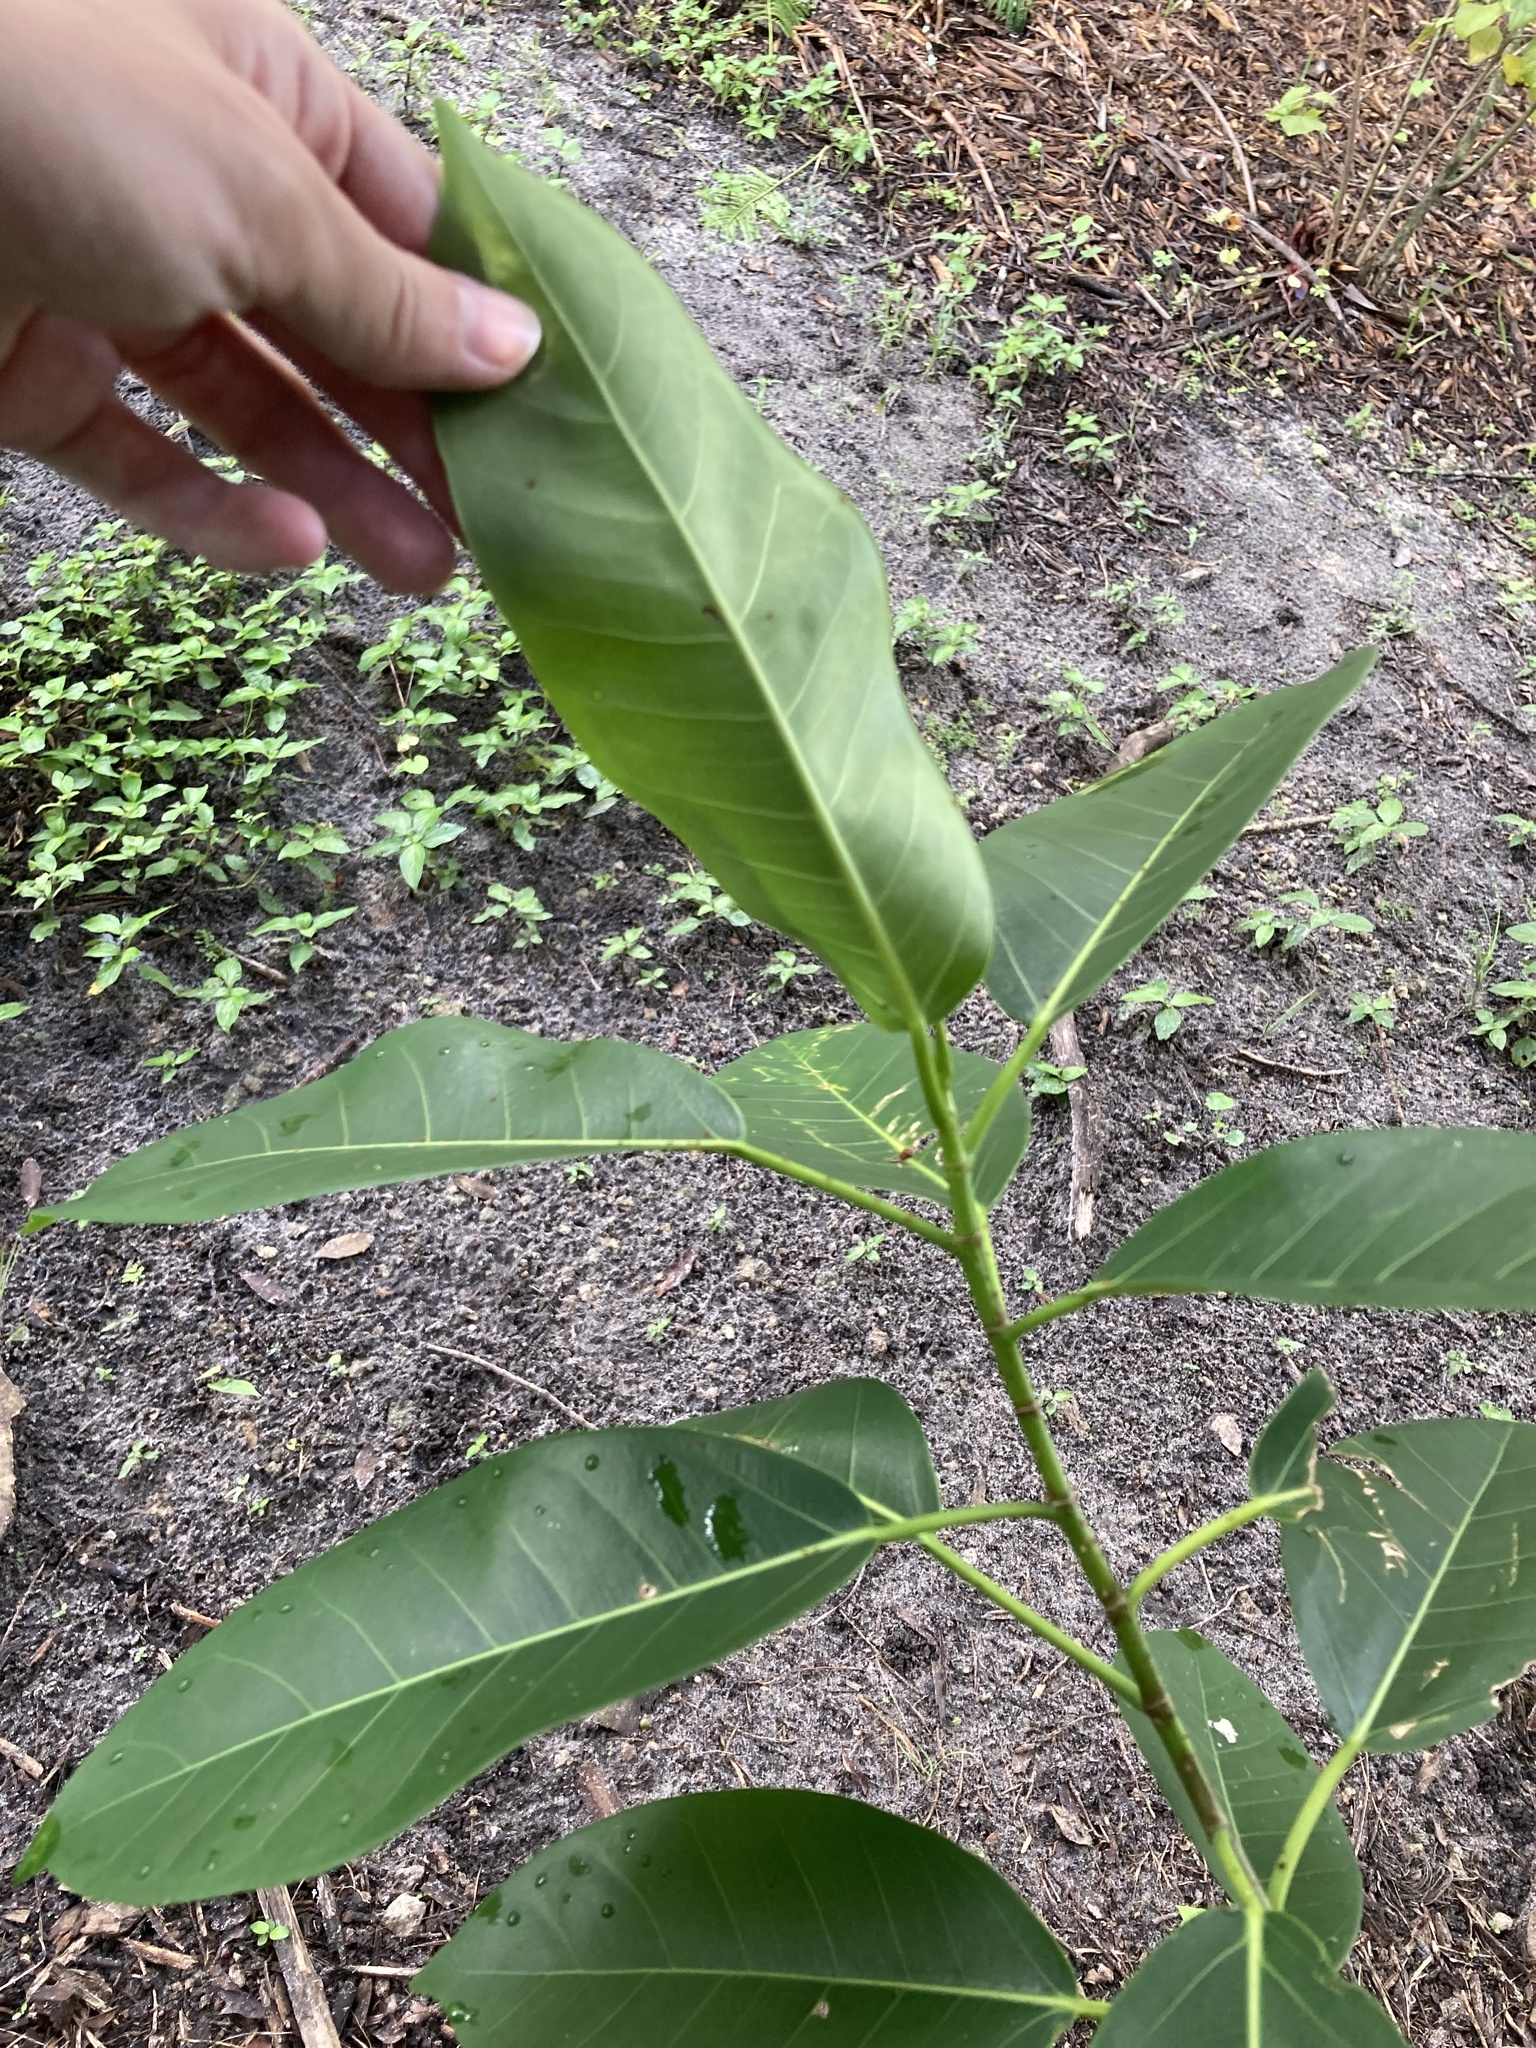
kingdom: Plantae
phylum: Tracheophyta
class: Magnoliopsida
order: Rosales
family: Moraceae
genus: Ficus
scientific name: Ficus aurea
